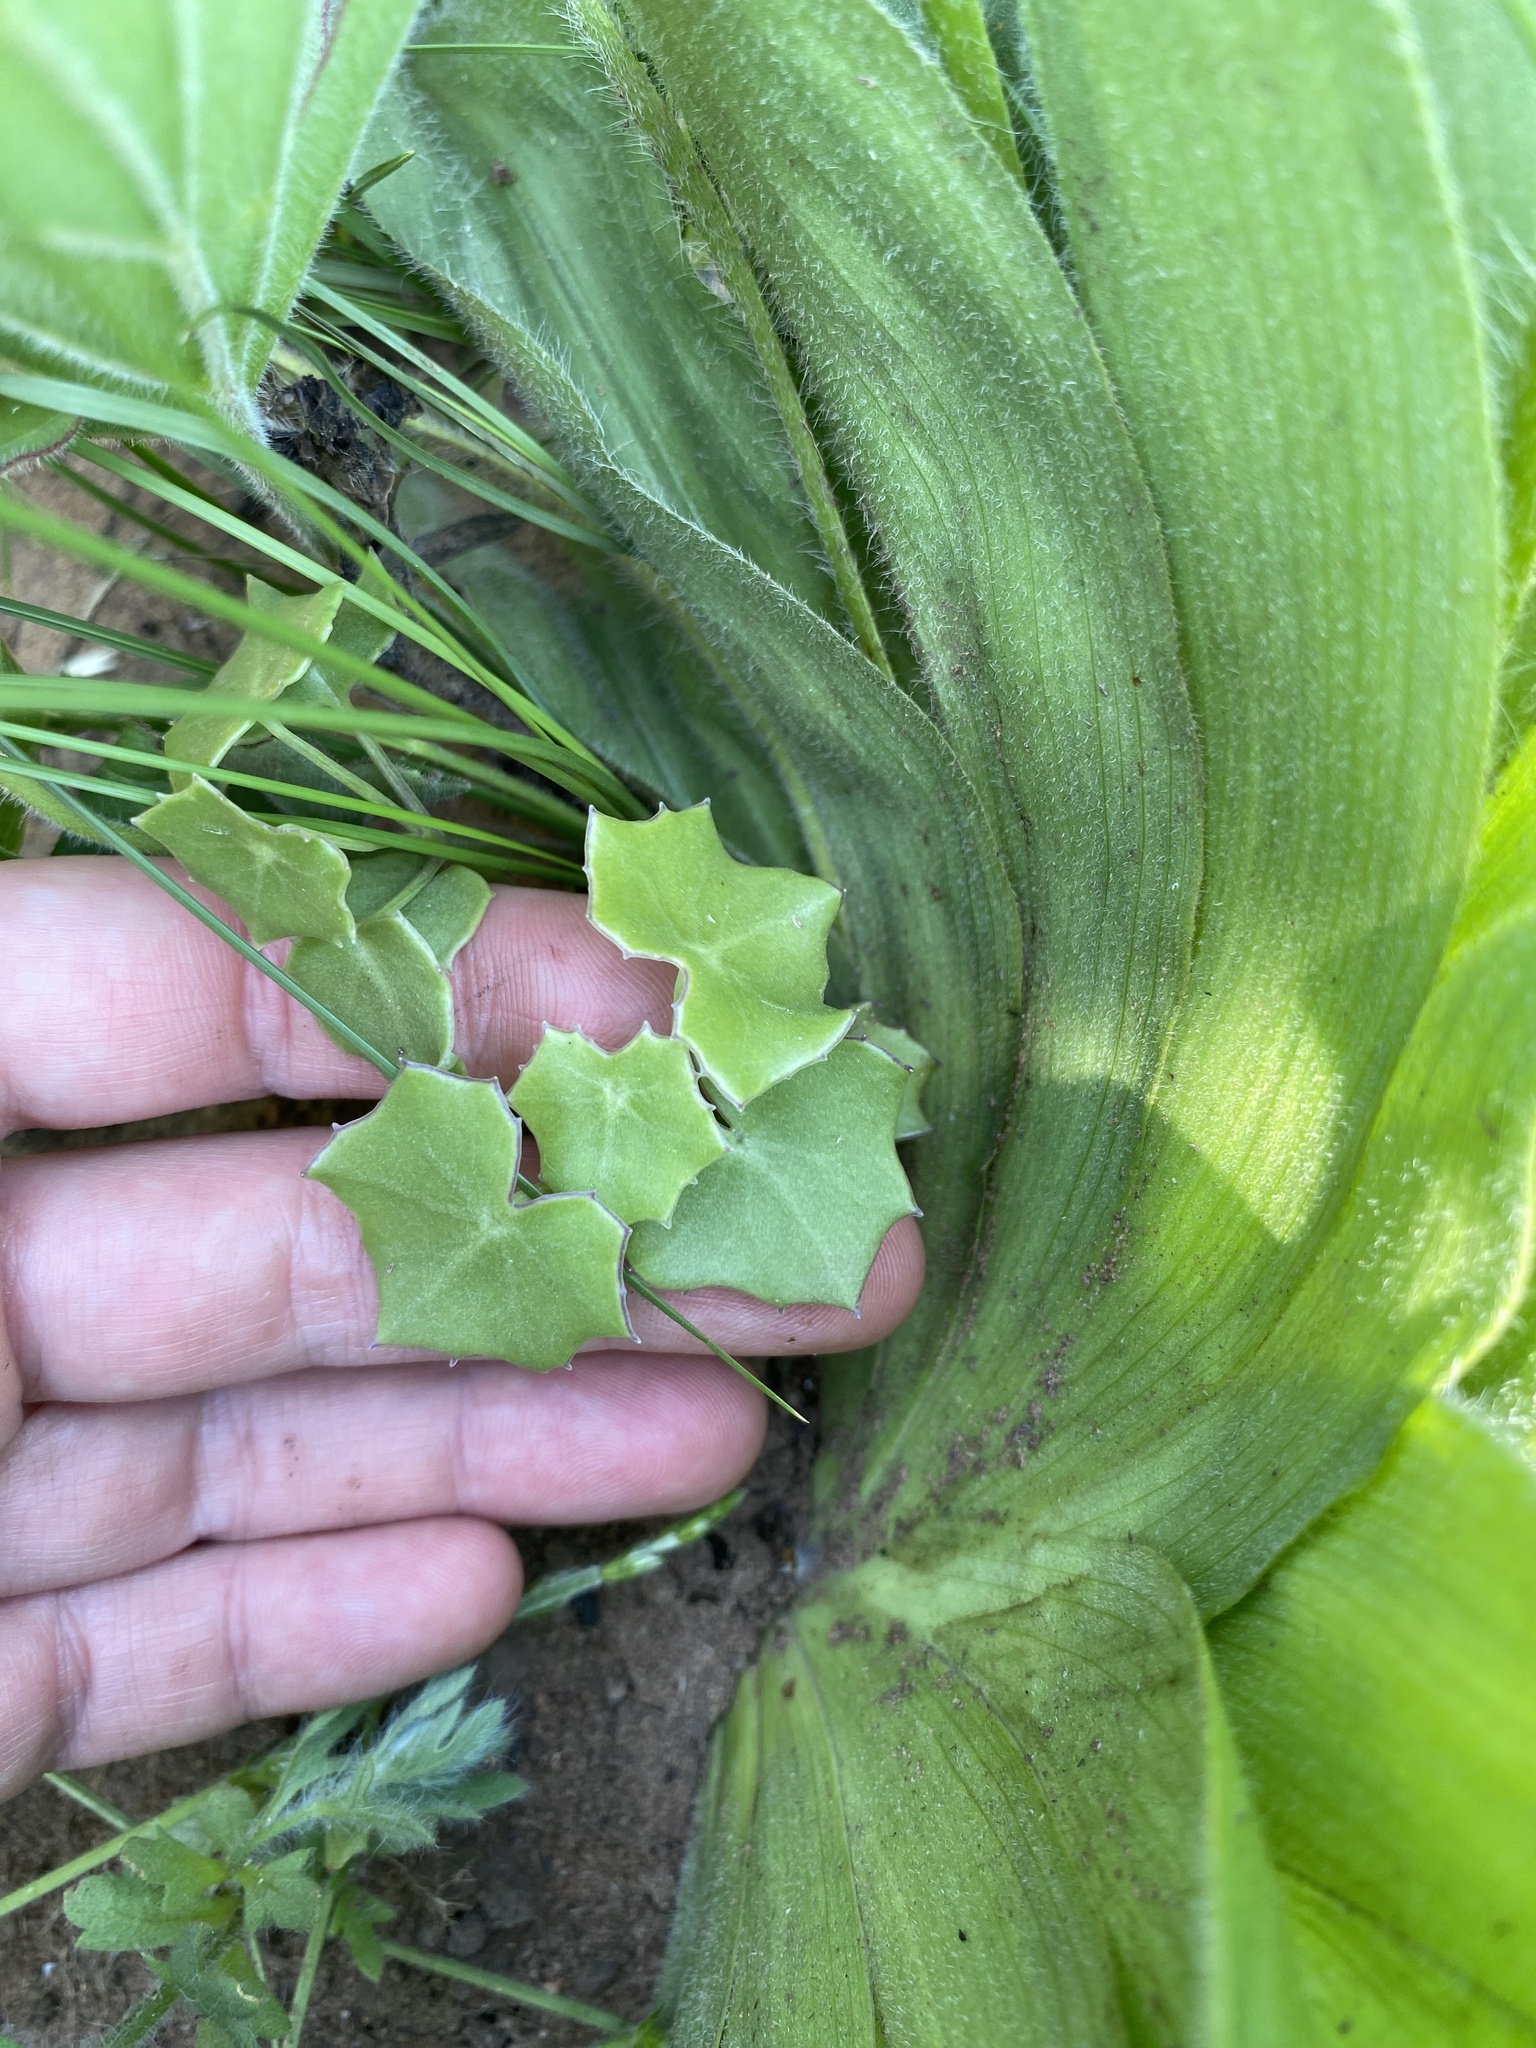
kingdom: Plantae
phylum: Tracheophyta
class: Magnoliopsida
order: Asterales
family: Asteraceae
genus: Senecio
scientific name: Senecio oxyriifolius
